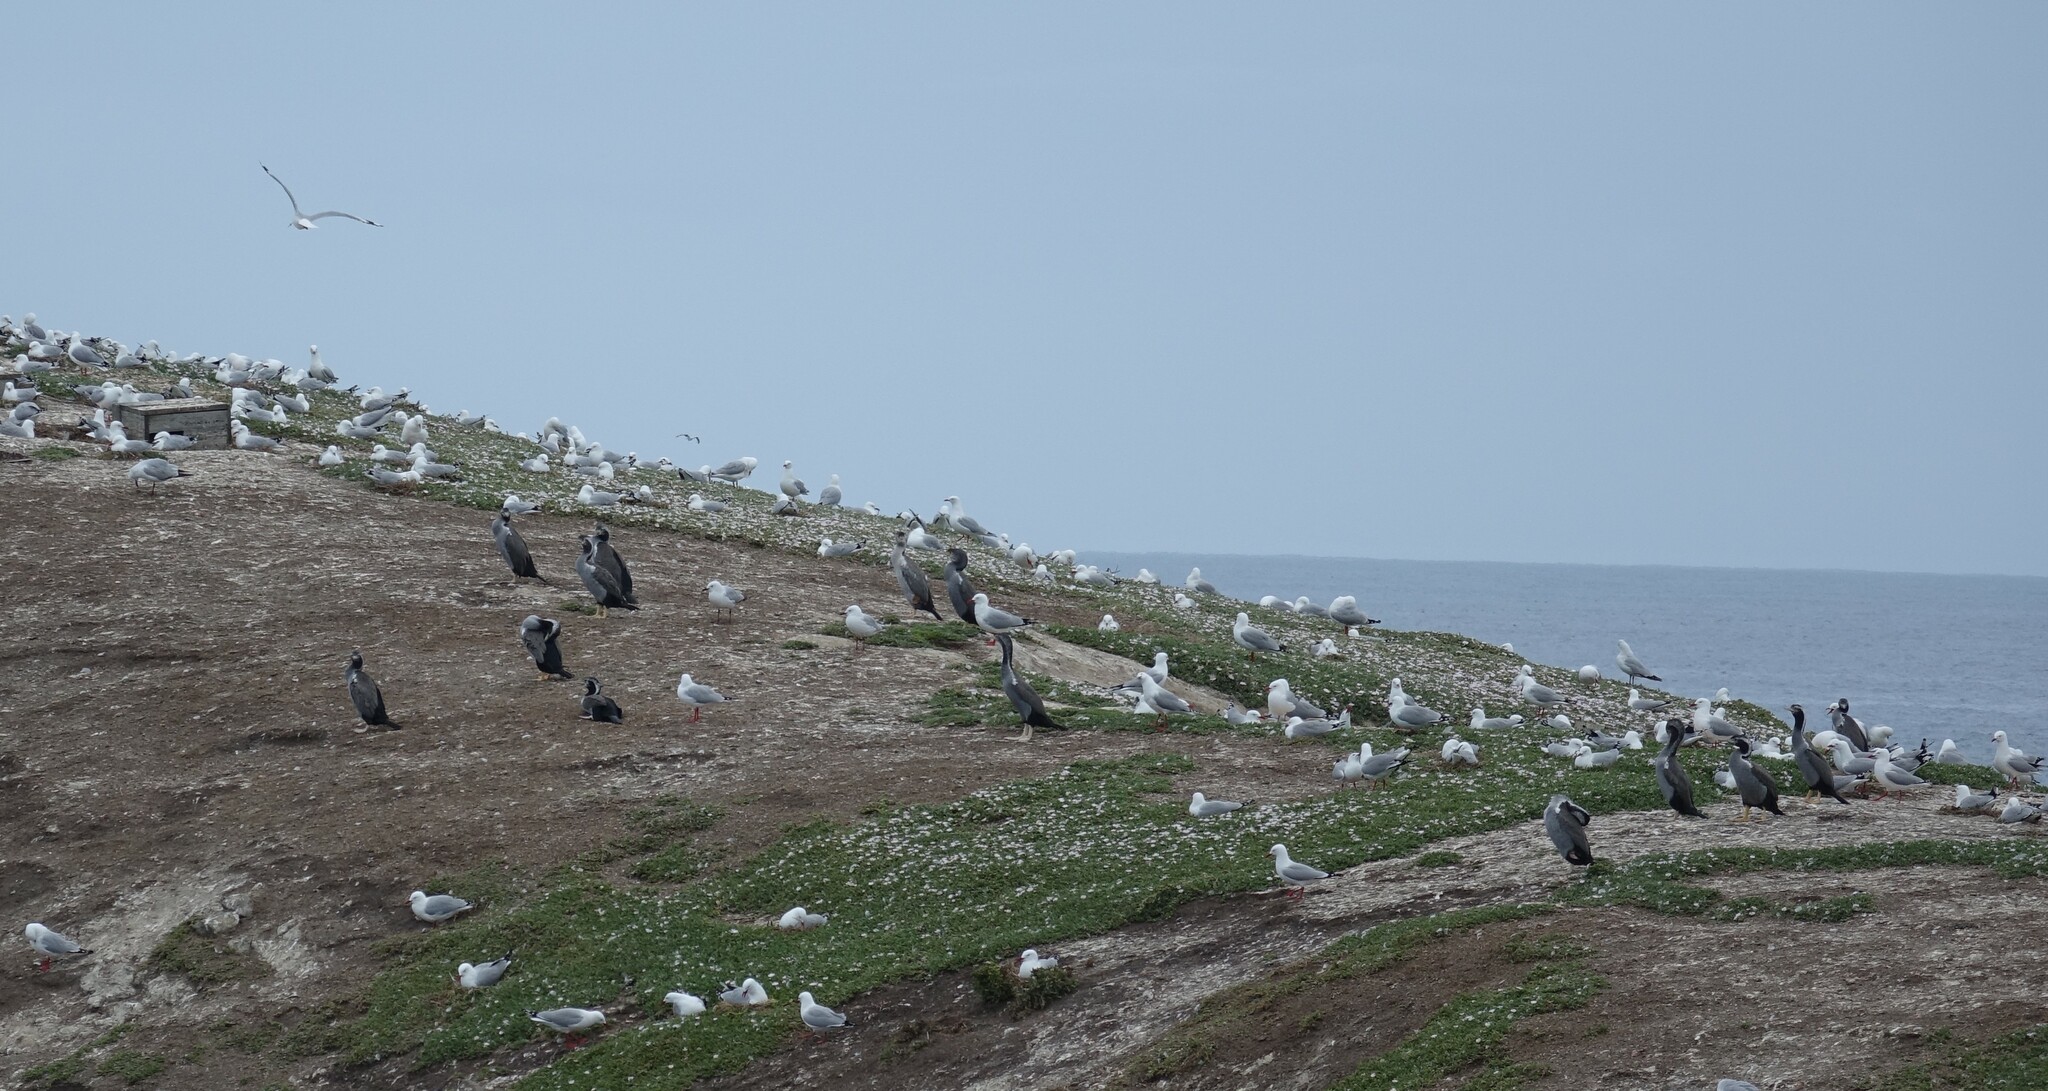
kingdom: Animalia
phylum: Chordata
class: Aves
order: Suliformes
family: Phalacrocoracidae
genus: Phalacrocorax
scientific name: Phalacrocorax punctatus
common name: Spotted shag
